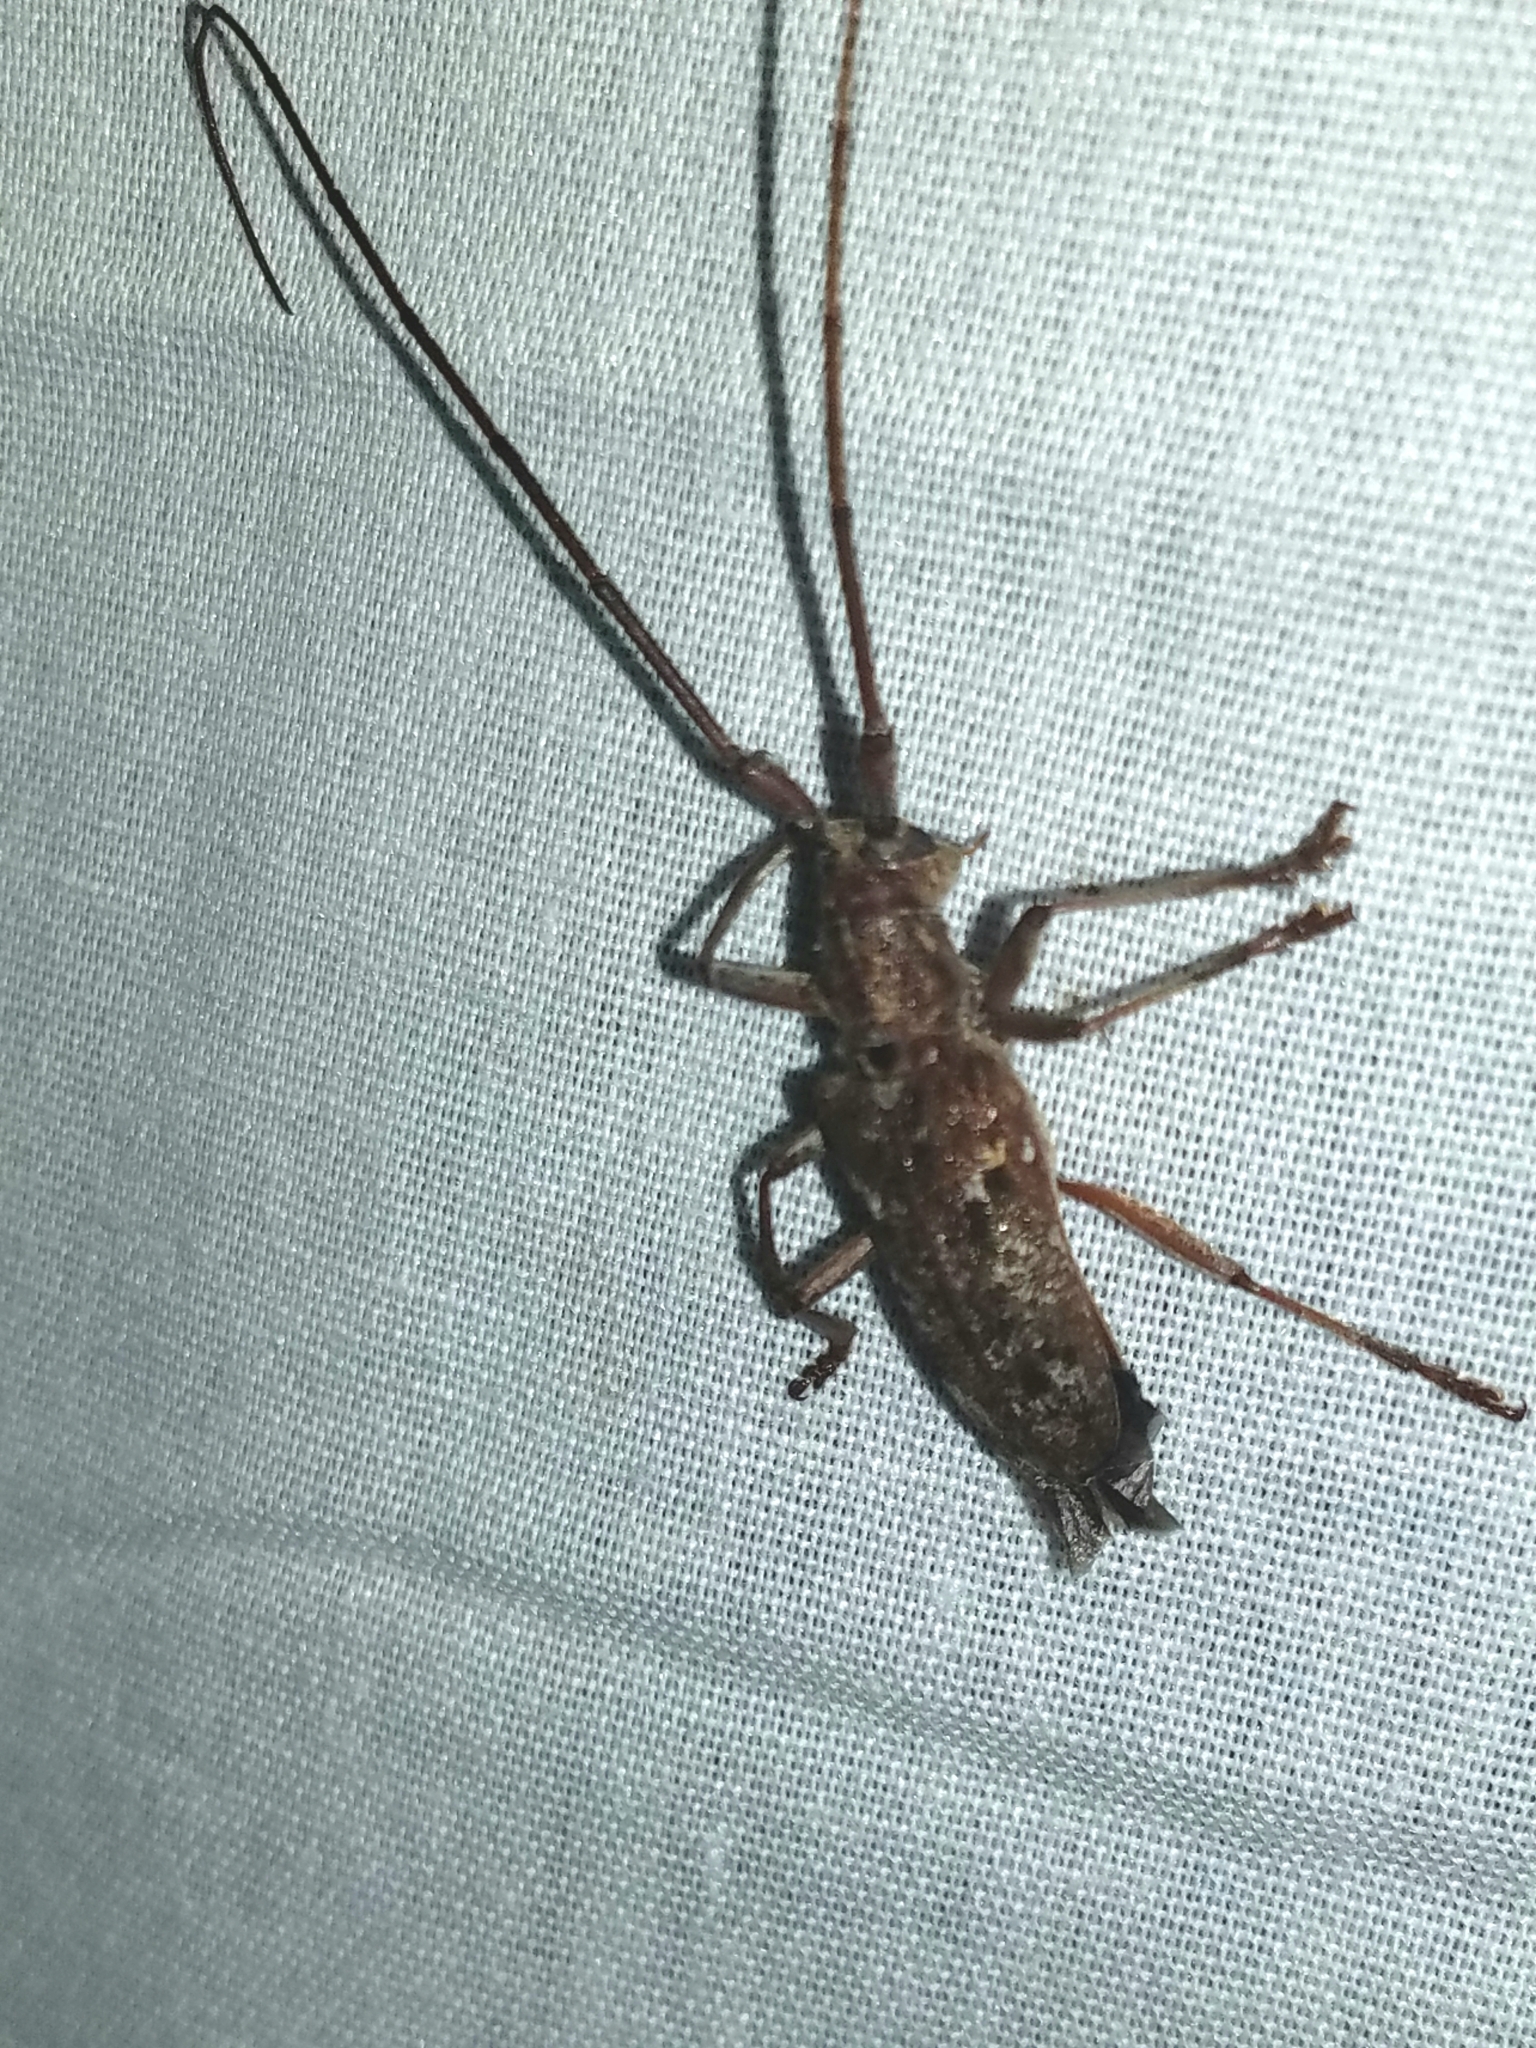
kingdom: Animalia
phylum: Arthropoda
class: Insecta
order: Coleoptera
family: Cerambycidae
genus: Monochamus
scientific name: Monochamus carolinensis
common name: Carolina pine sawyer
